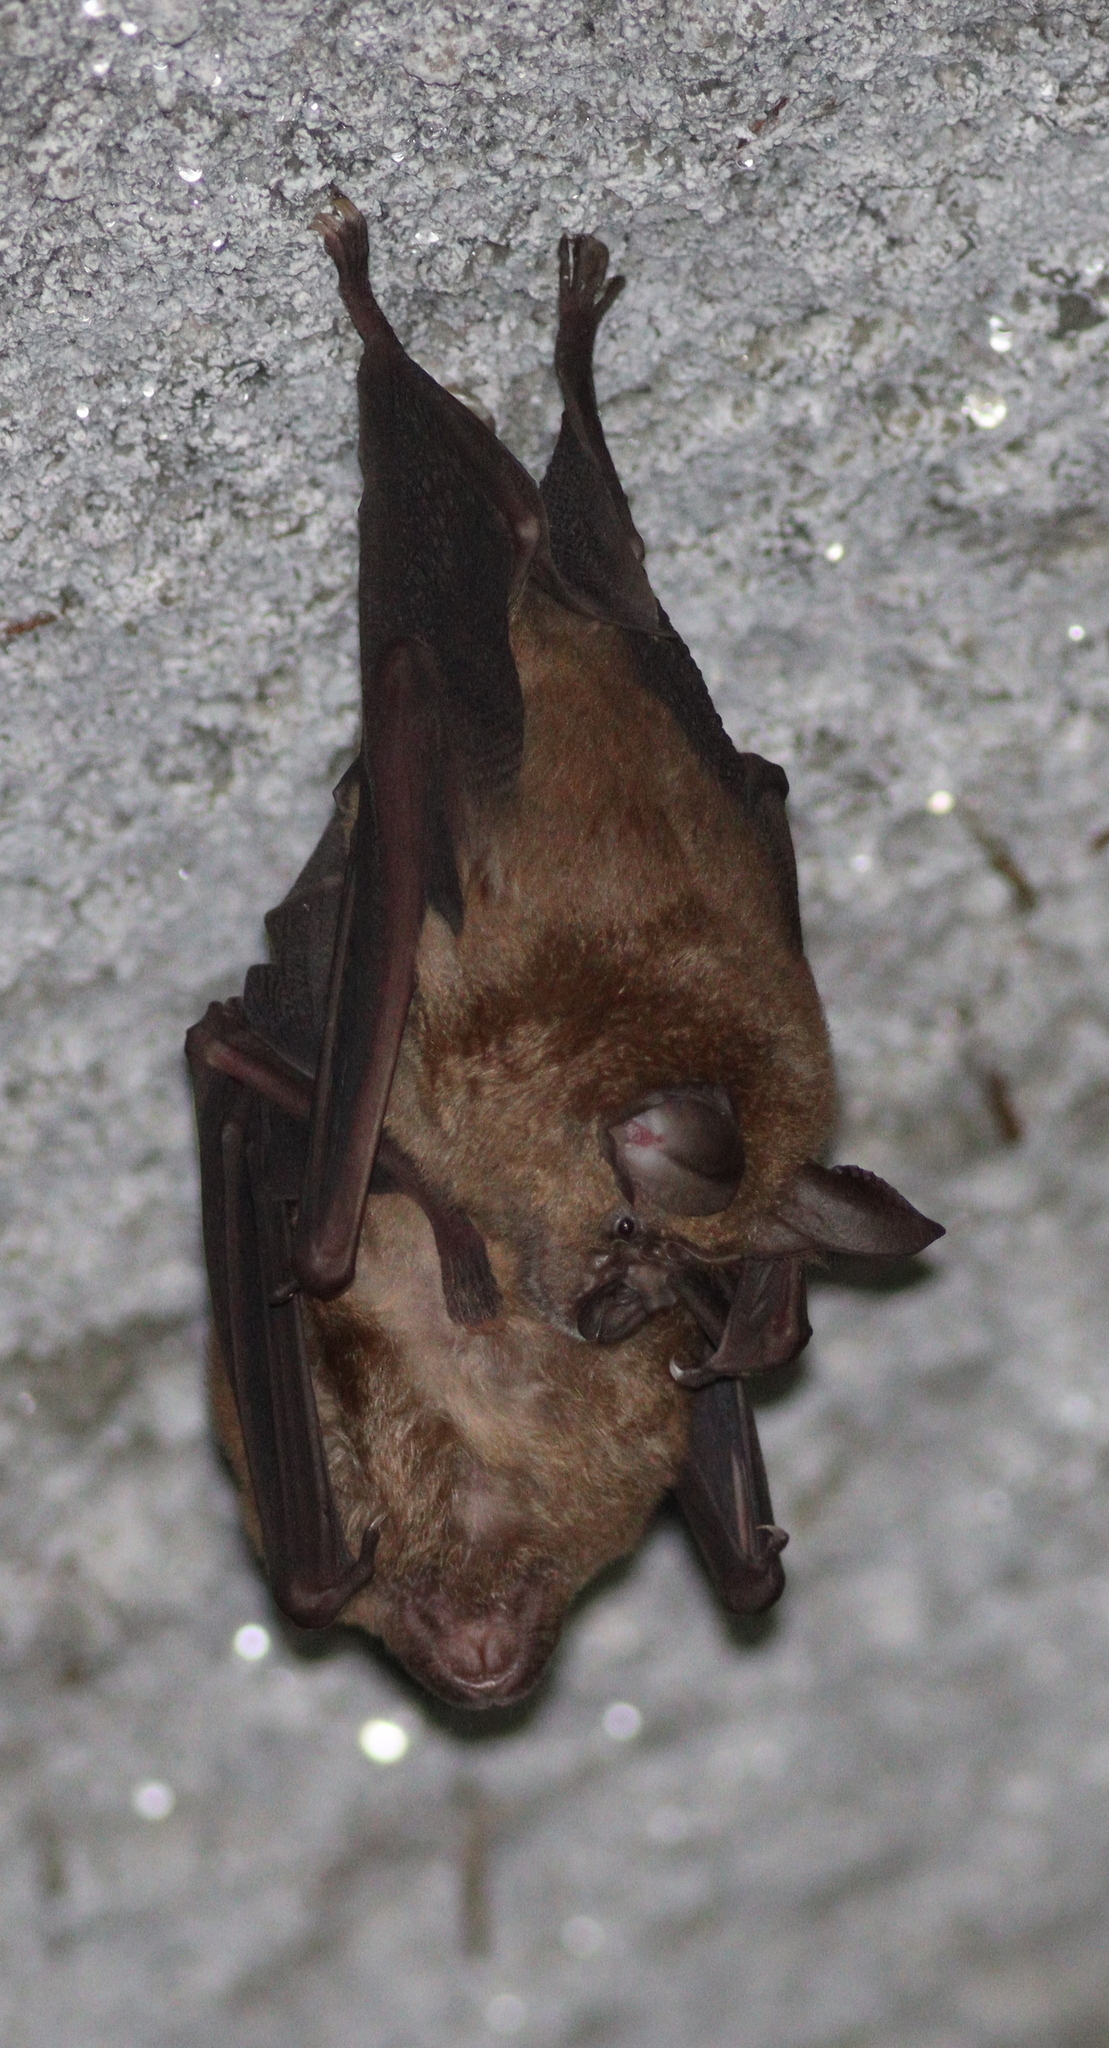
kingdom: Animalia
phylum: Chordata
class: Mammalia
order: Chiroptera
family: Rhinolophidae
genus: Rhinolophus
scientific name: Rhinolophus nippon
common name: Greater japanese horseshoe bat
